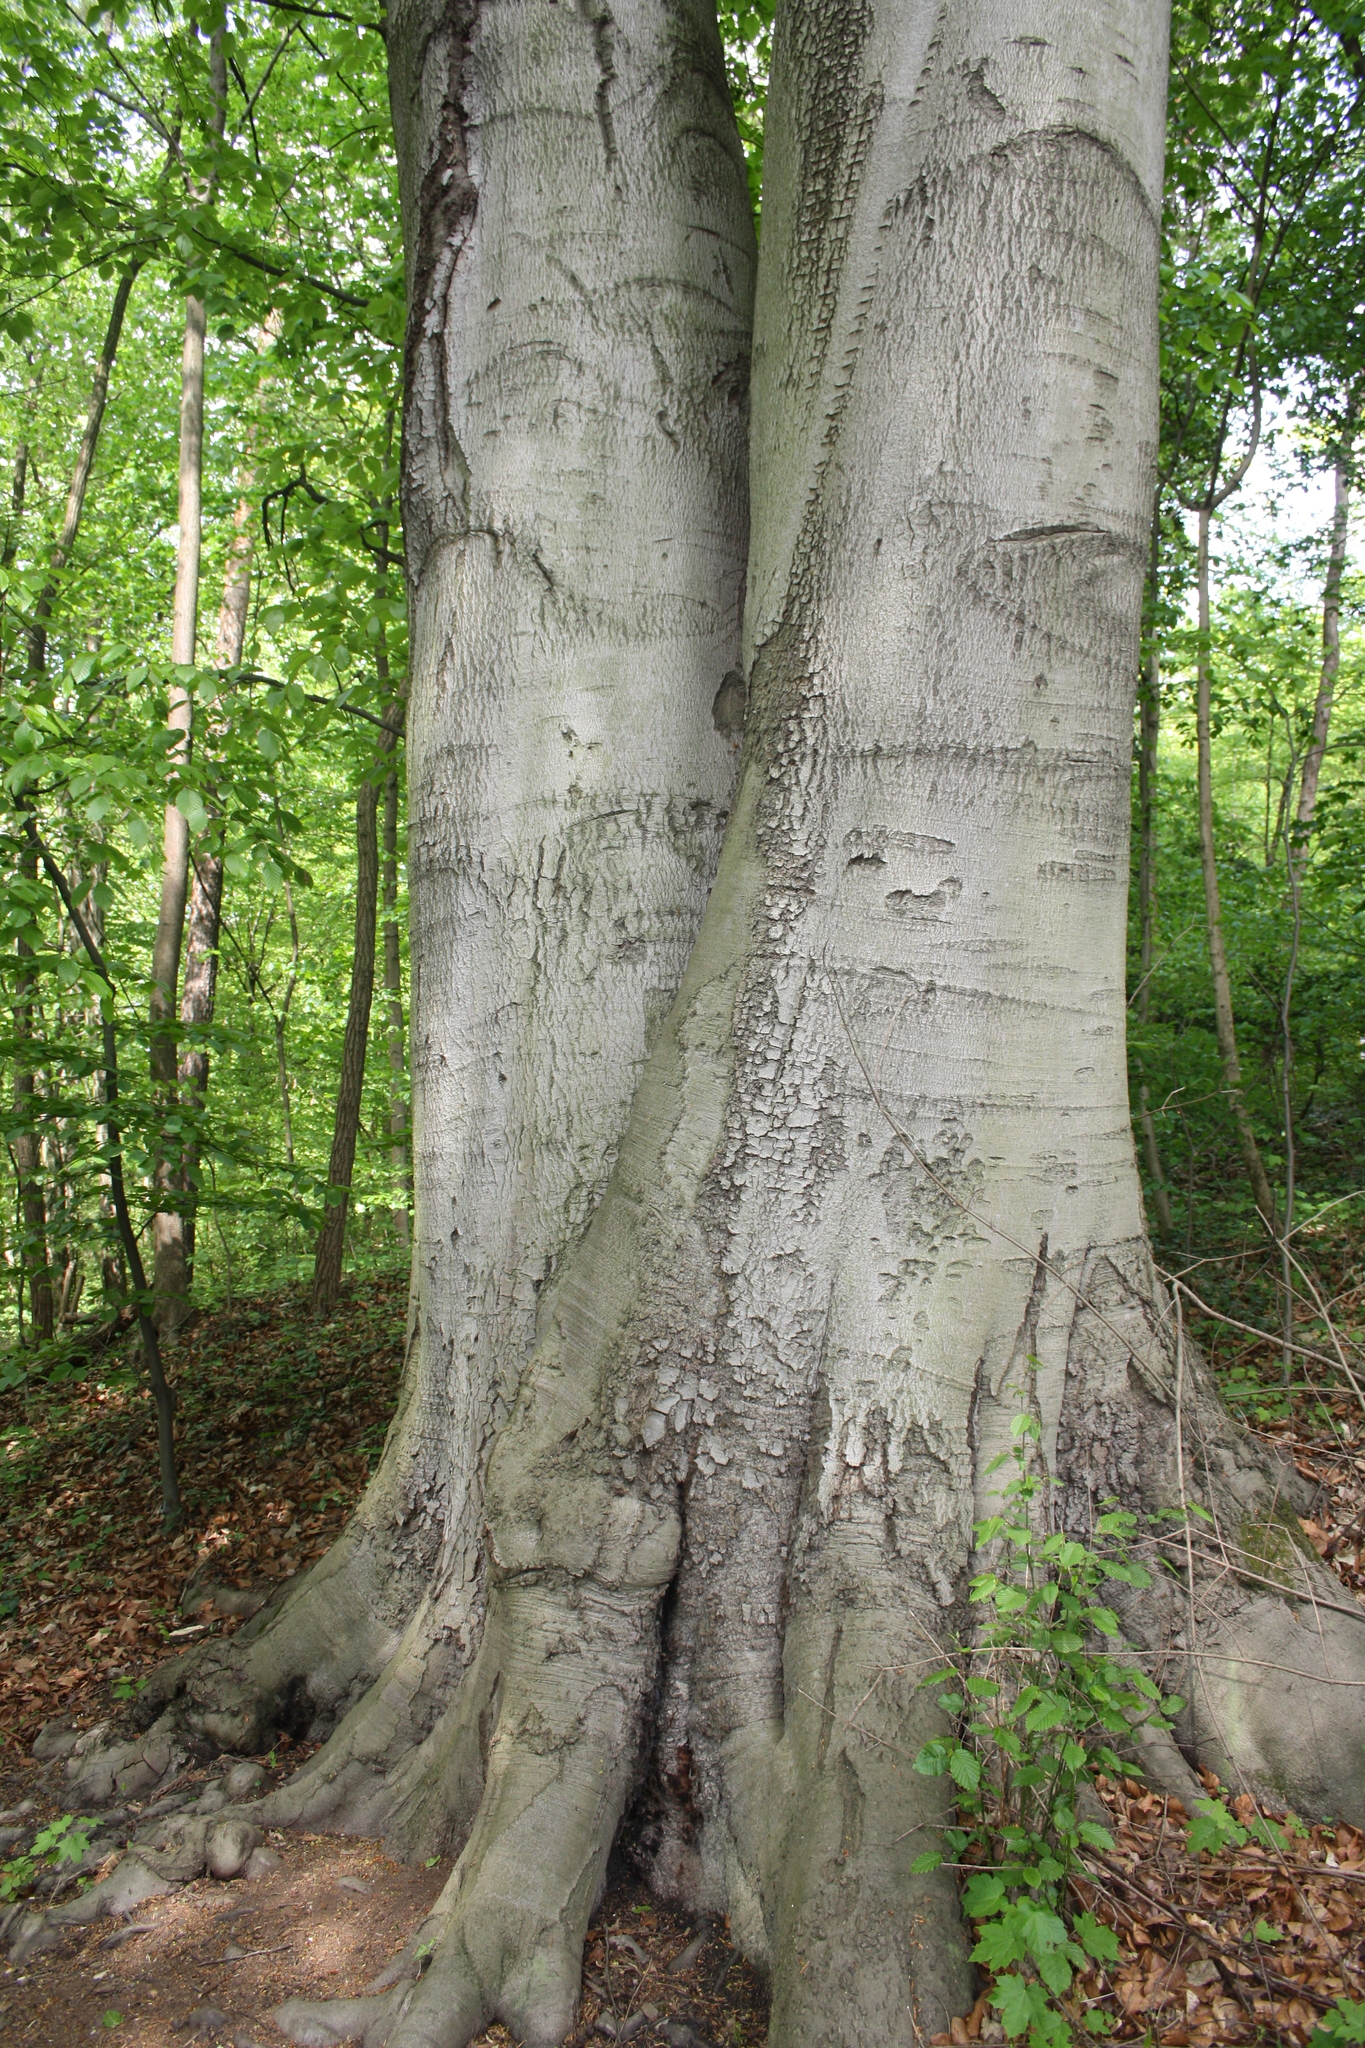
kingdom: Plantae
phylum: Tracheophyta
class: Magnoliopsida
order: Fagales
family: Fagaceae
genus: Fagus
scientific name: Fagus sylvatica
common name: Beech
